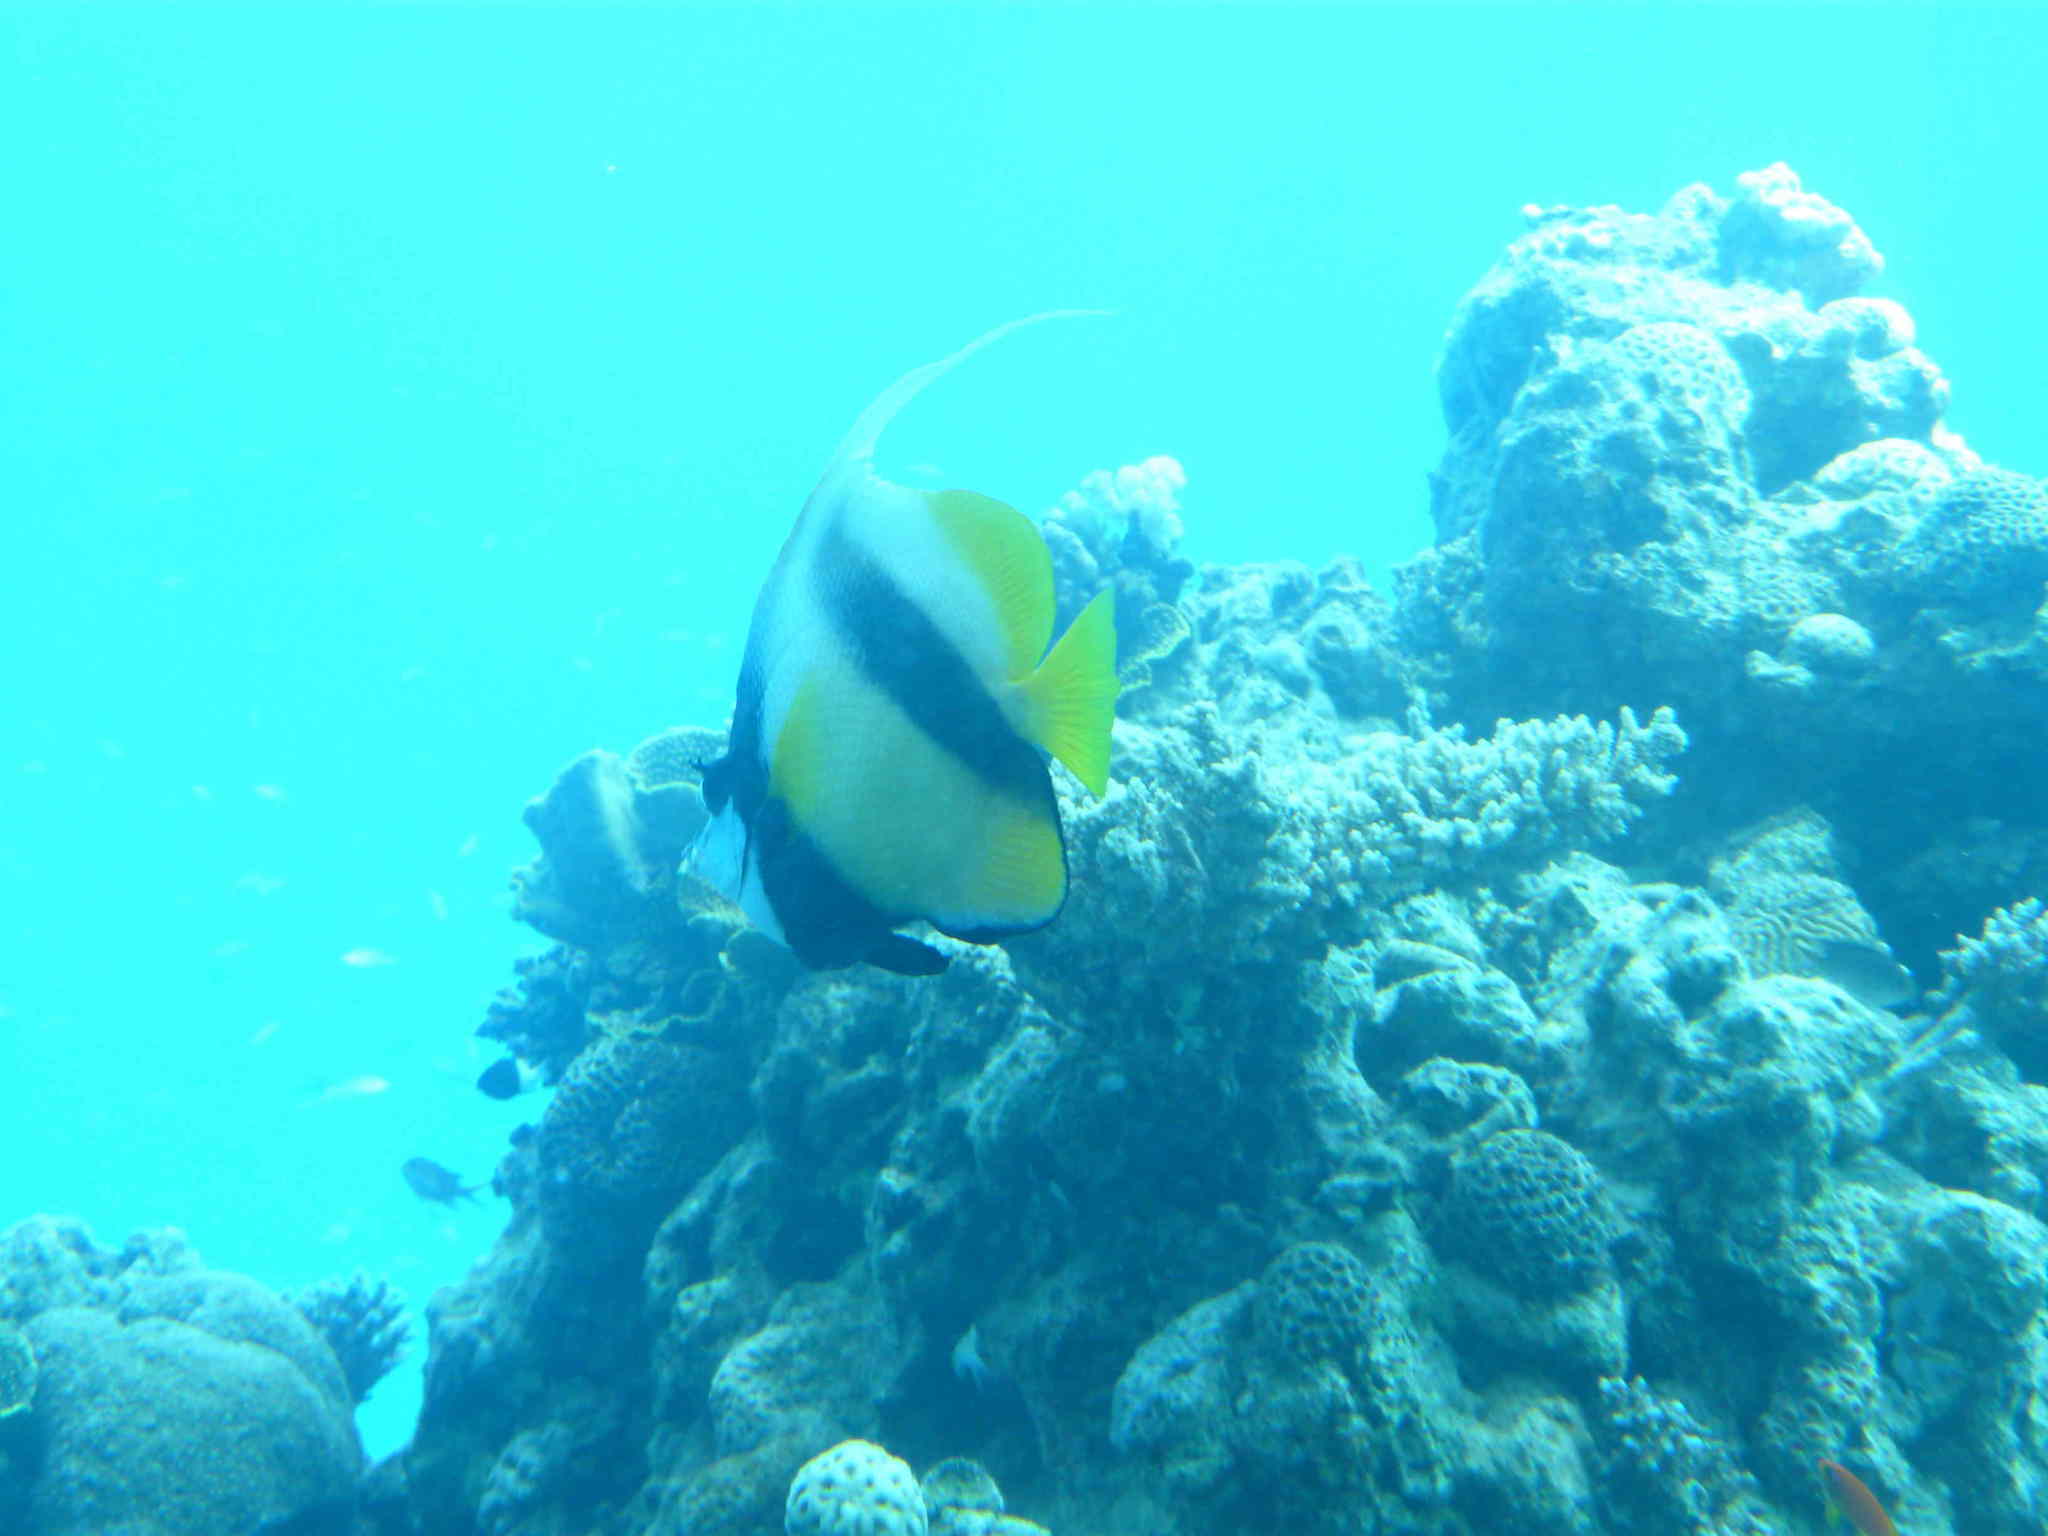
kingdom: Animalia
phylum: Chordata
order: Perciformes
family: Chaetodontidae
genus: Heniochus
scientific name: Heniochus intermedius
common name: Red sea bannerfish
